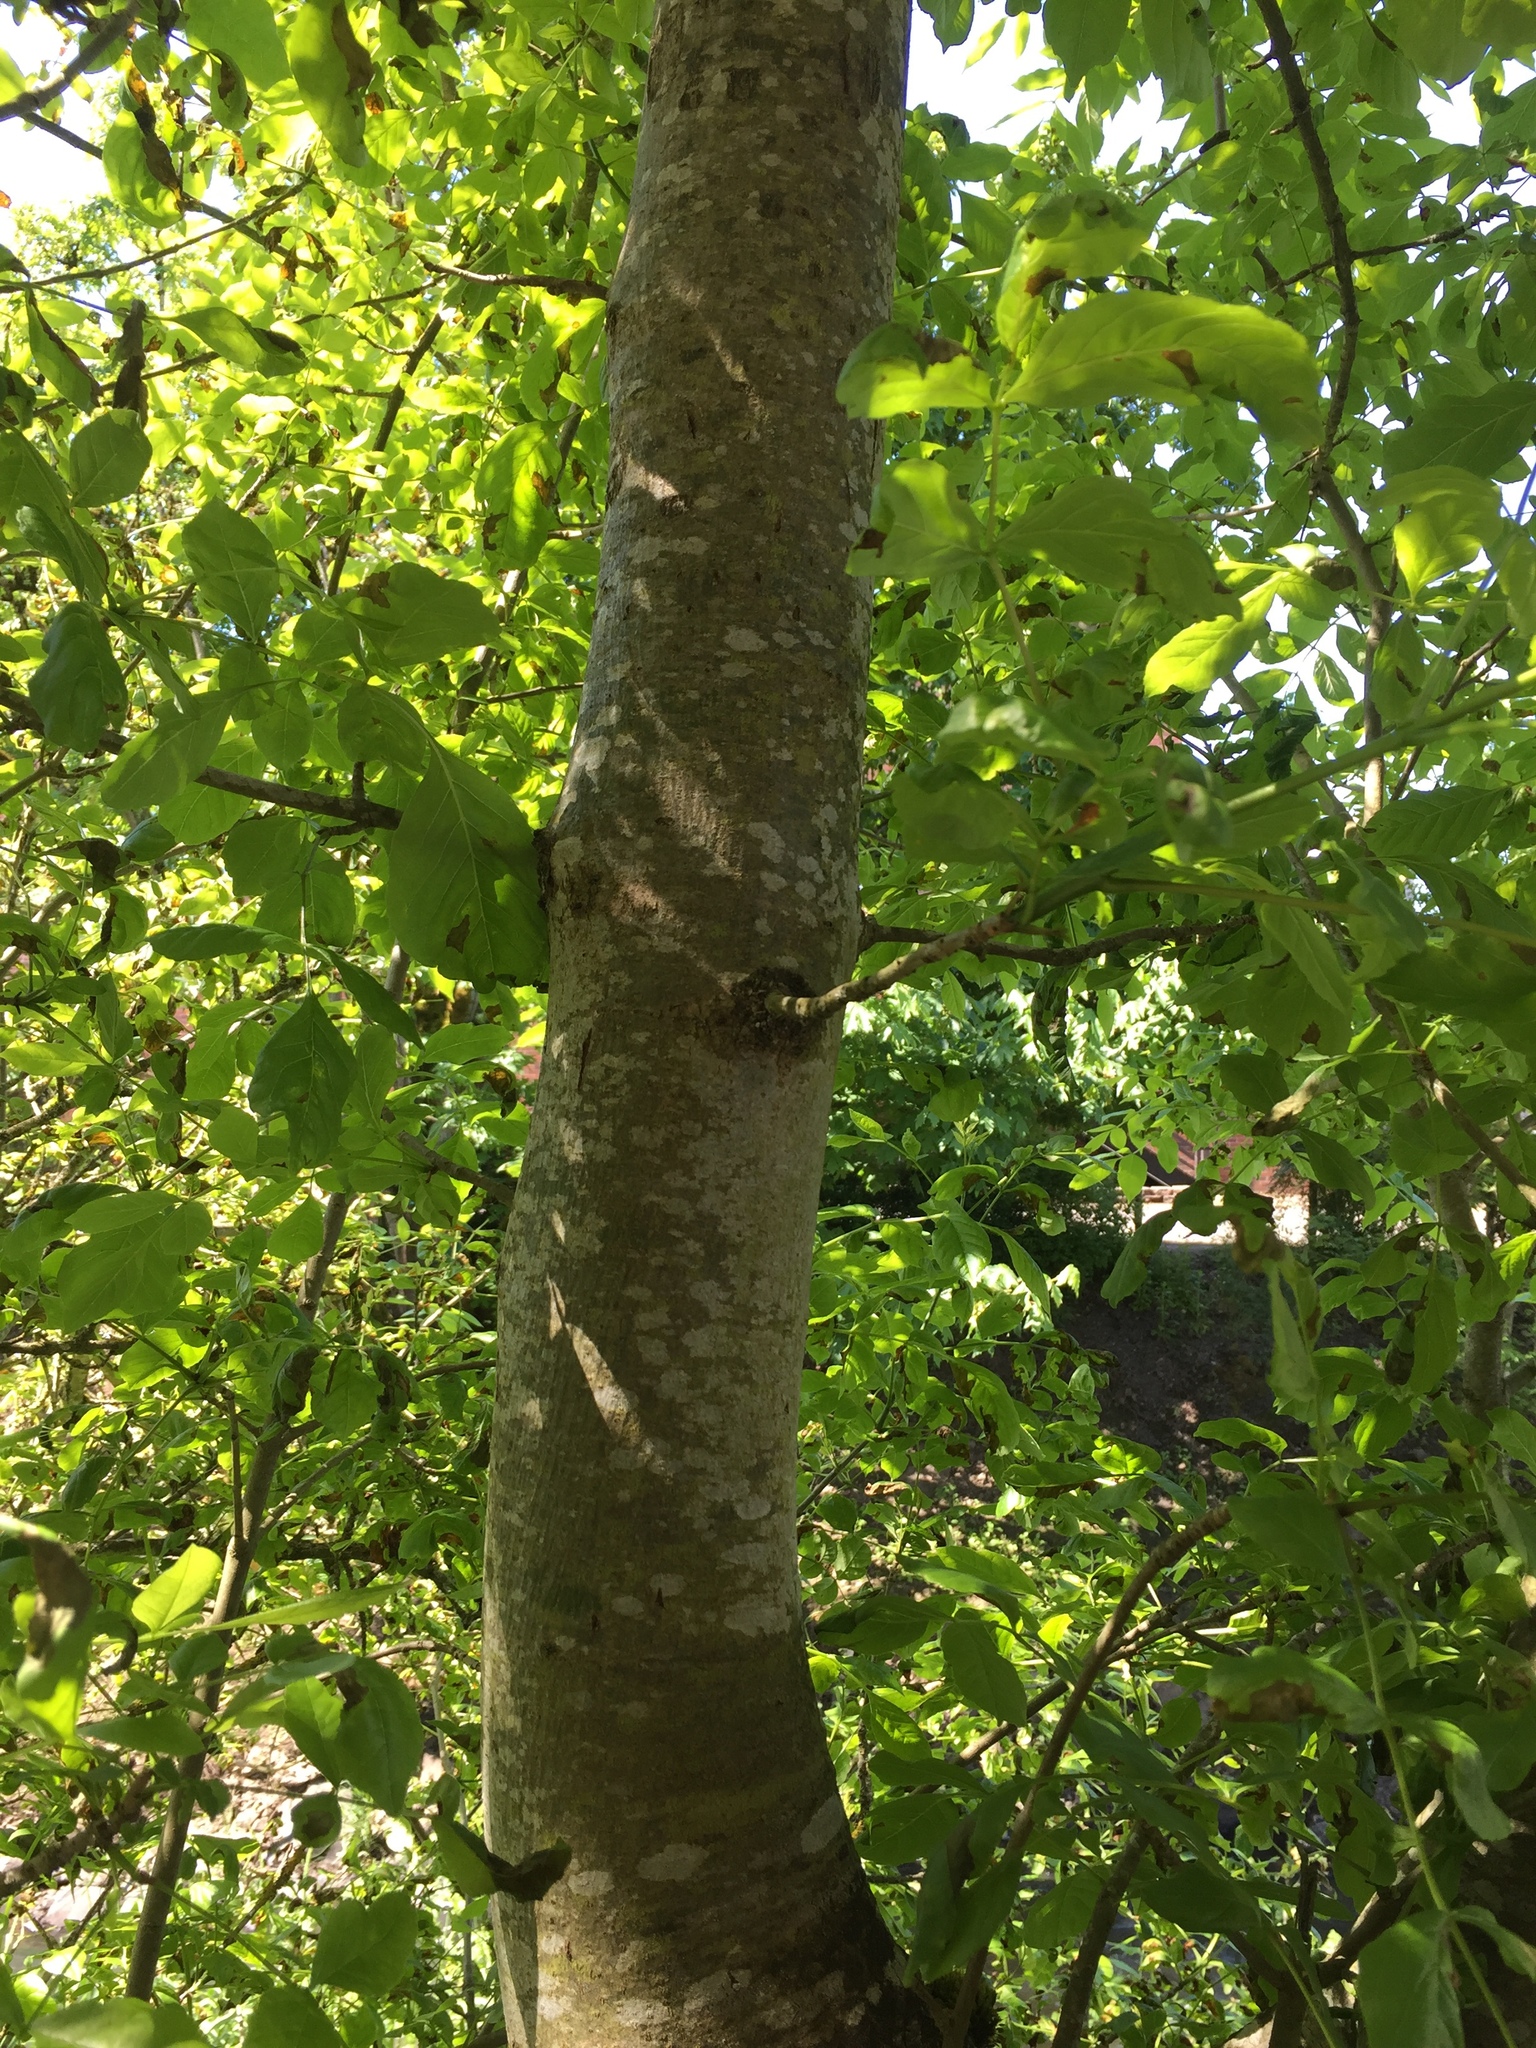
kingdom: Plantae
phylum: Tracheophyta
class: Magnoliopsida
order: Lamiales
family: Oleaceae
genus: Fraxinus
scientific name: Fraxinus latifolia
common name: Oregon ash
